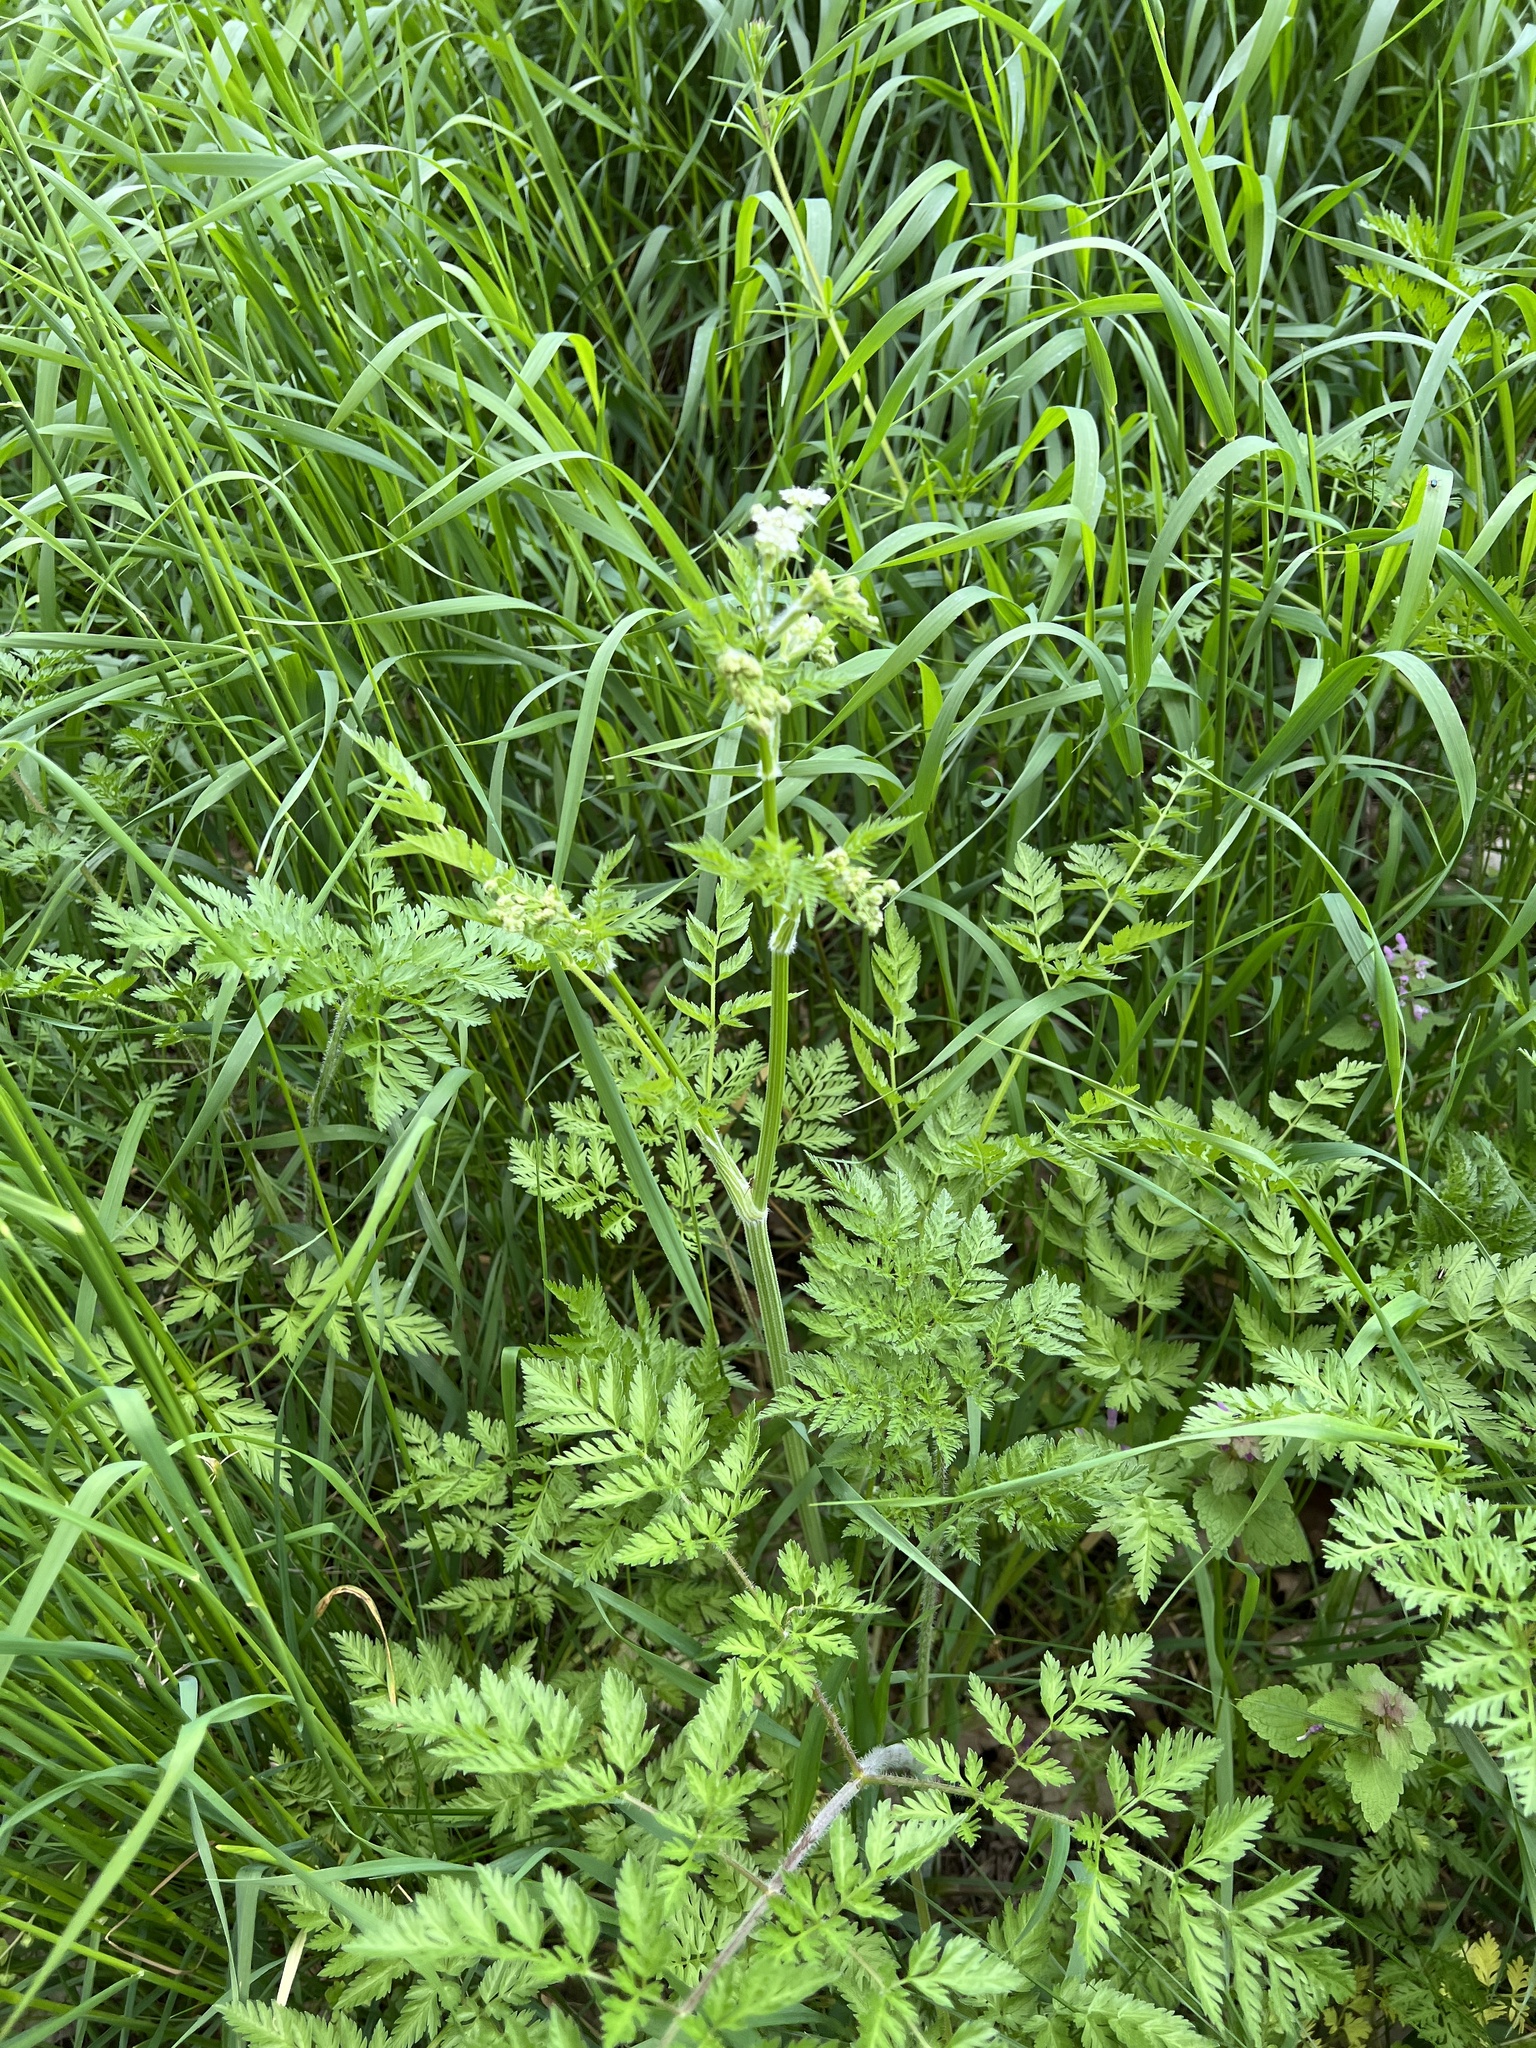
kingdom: Plantae
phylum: Tracheophyta
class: Magnoliopsida
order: Apiales
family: Apiaceae
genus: Anthriscus
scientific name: Anthriscus sylvestris
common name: Cow parsley
